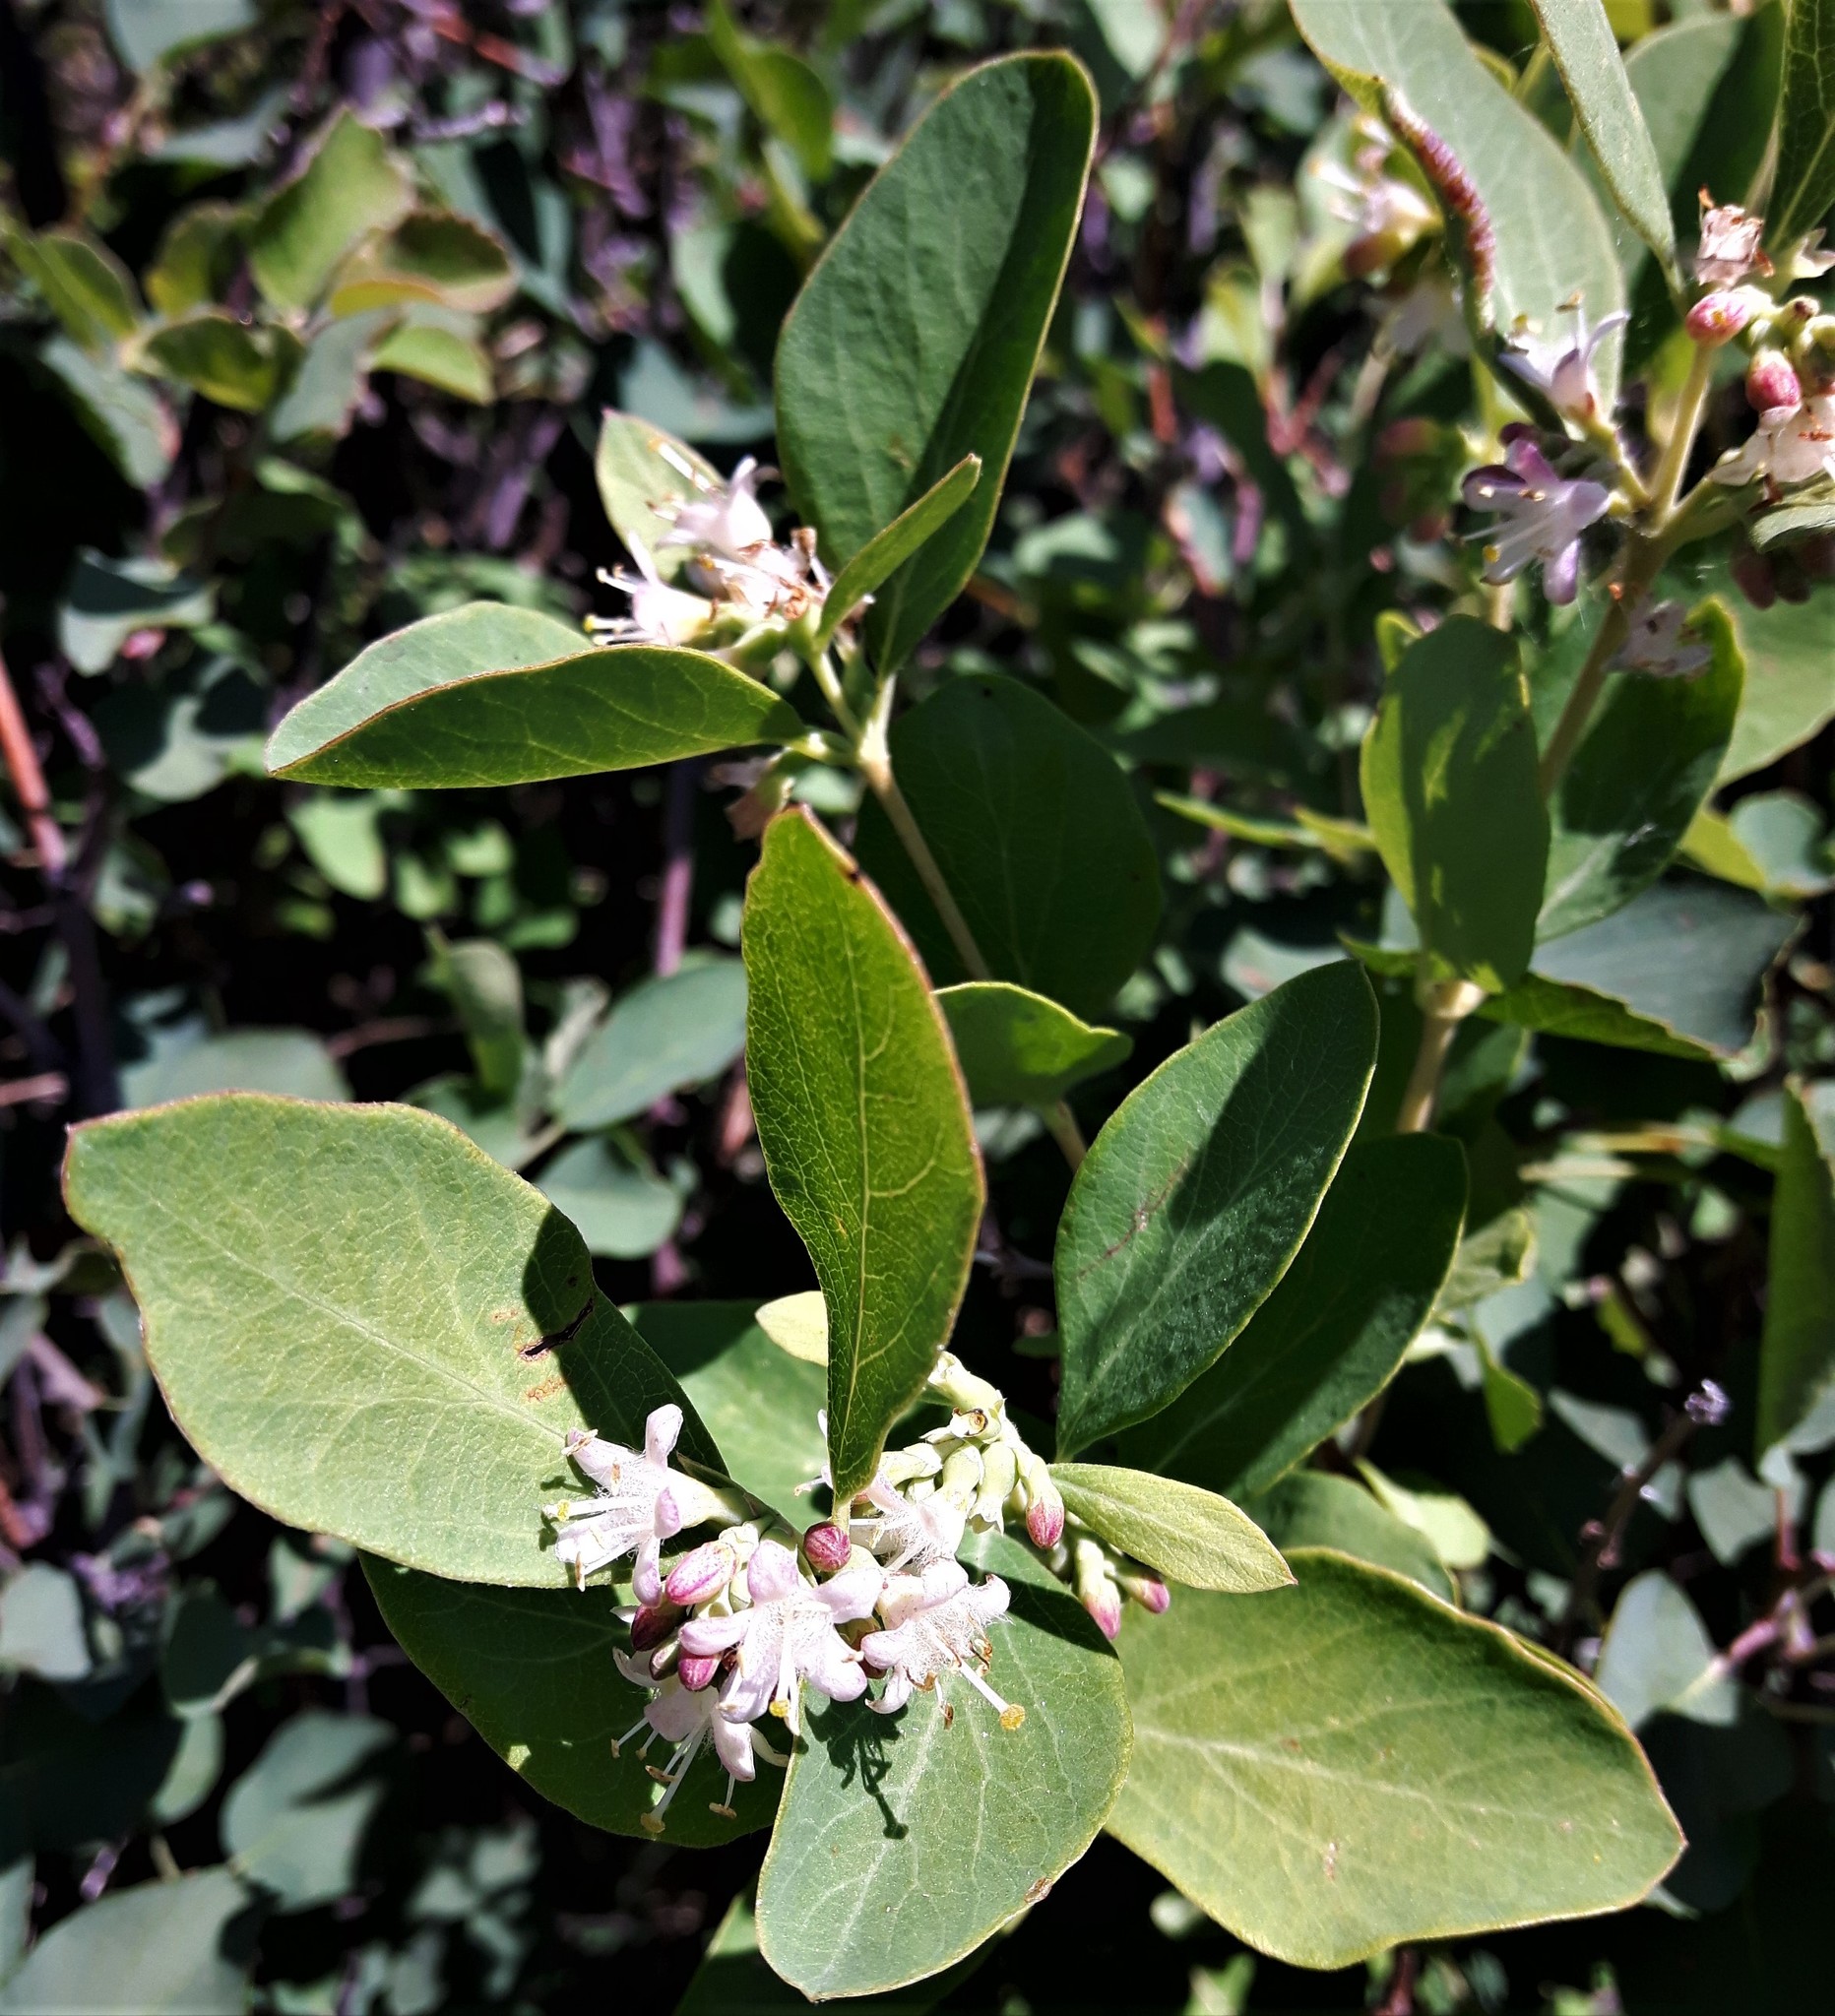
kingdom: Plantae
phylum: Tracheophyta
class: Magnoliopsida
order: Dipsacales
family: Caprifoliaceae
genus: Symphoricarpos
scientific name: Symphoricarpos occidentalis
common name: Wolfberry
